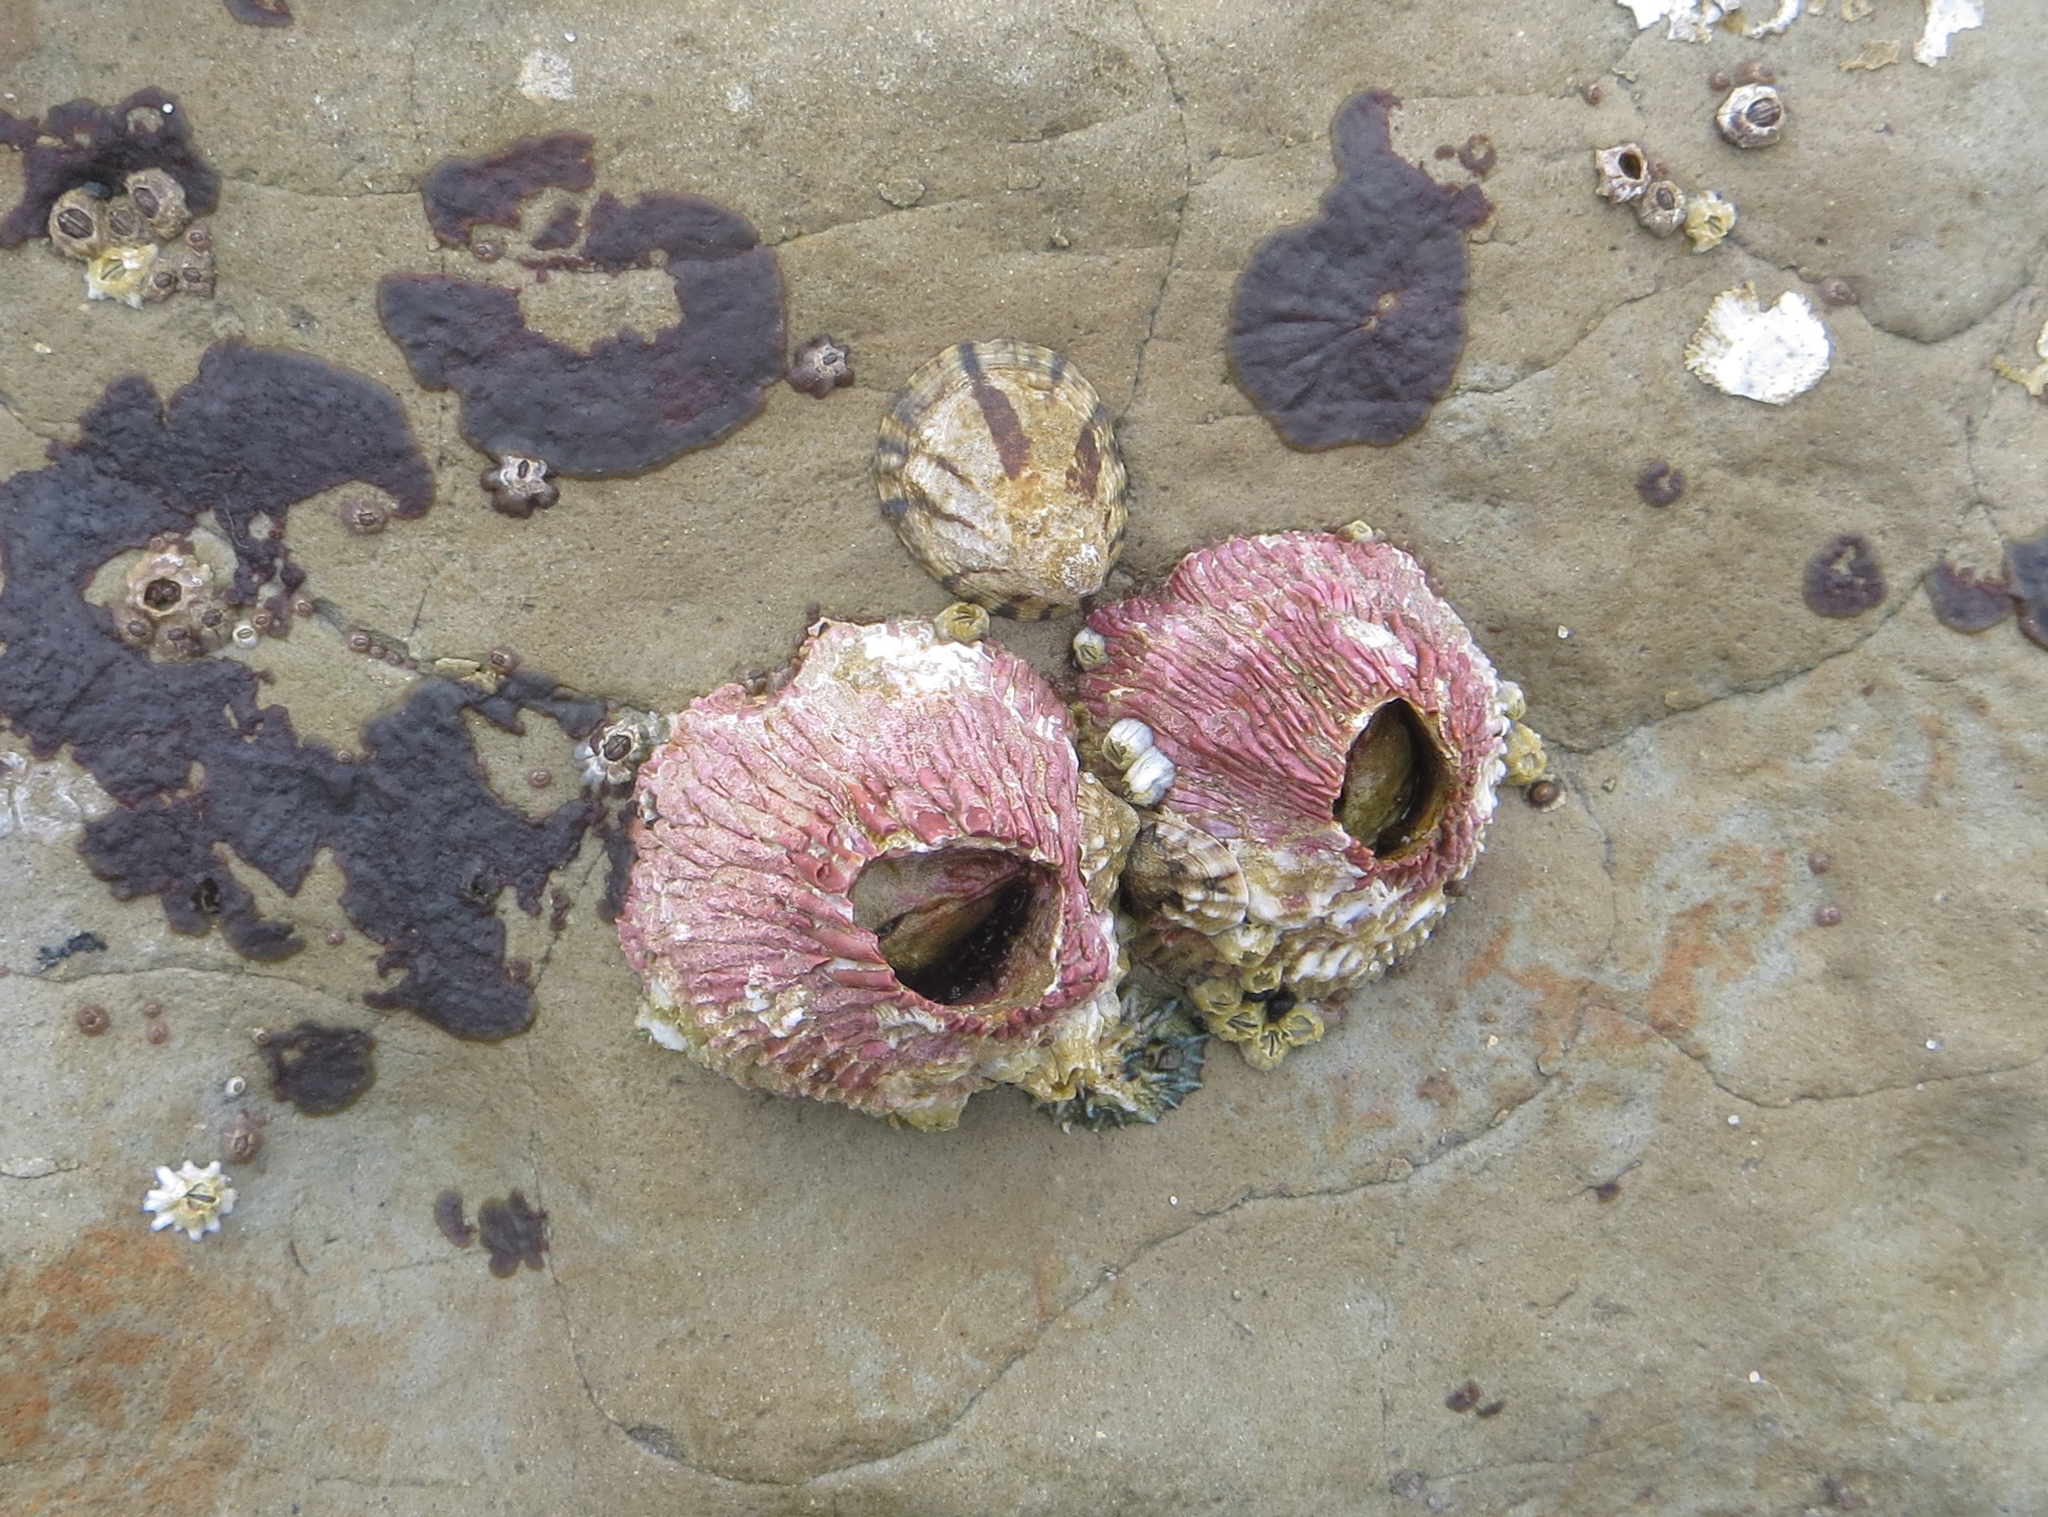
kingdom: Animalia
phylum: Arthropoda
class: Maxillopoda
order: Sessilia
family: Tetraclitidae
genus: Tetraclita
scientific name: Tetraclita rubescens
